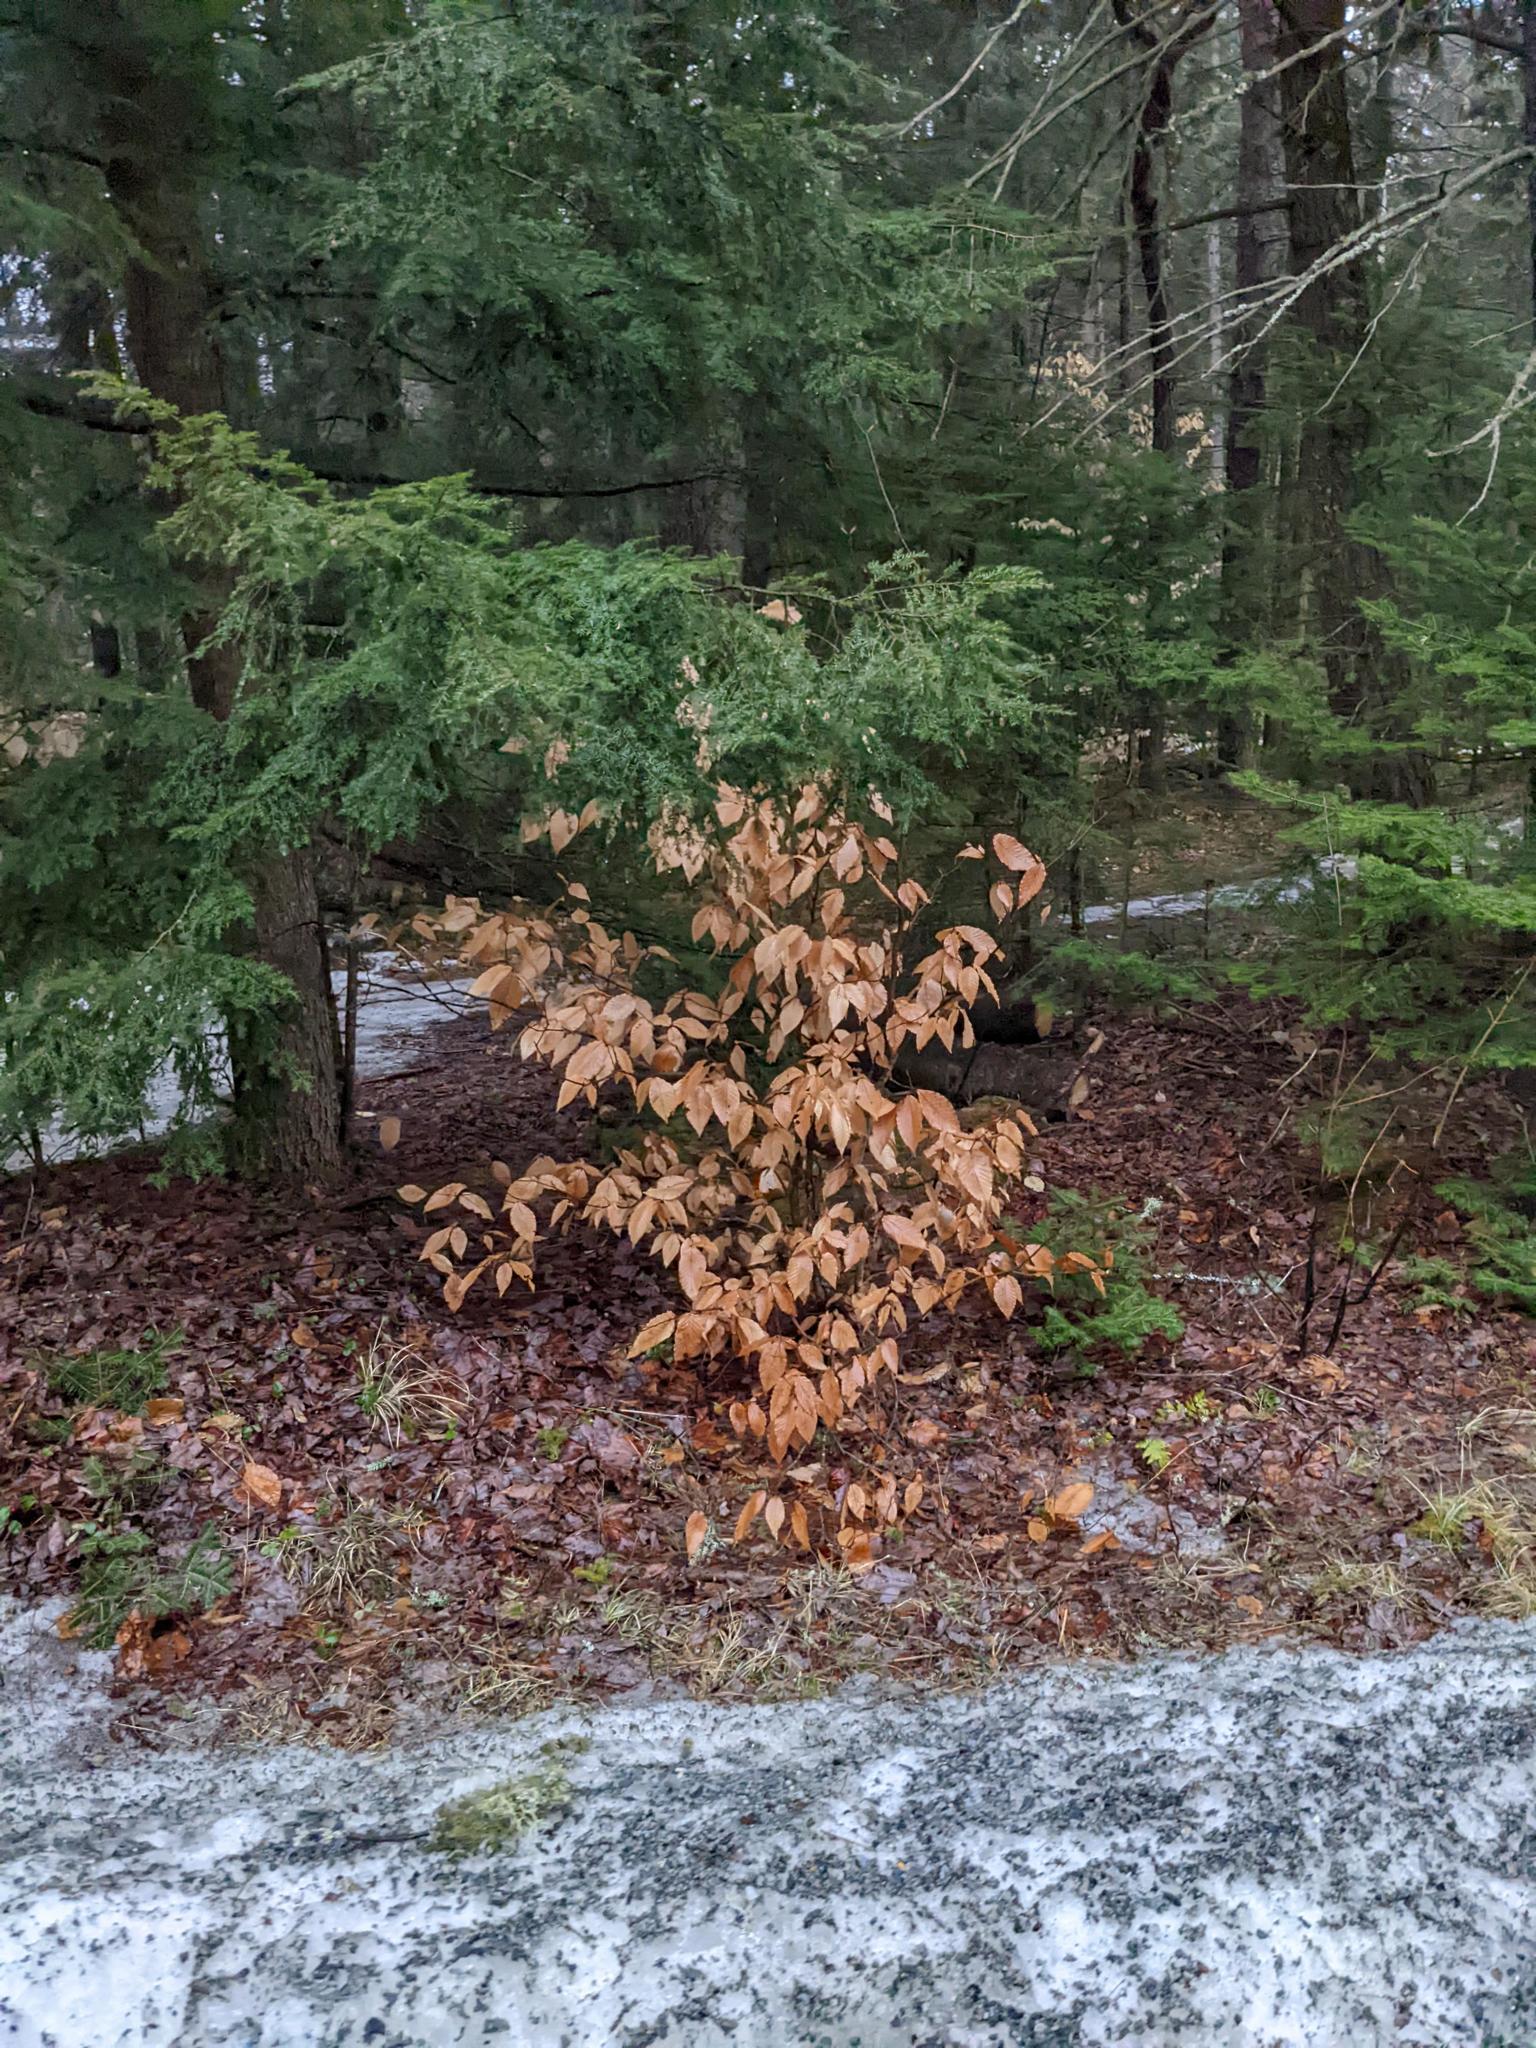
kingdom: Plantae
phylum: Tracheophyta
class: Magnoliopsida
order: Fagales
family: Fagaceae
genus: Fagus
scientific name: Fagus grandifolia
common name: American beech
